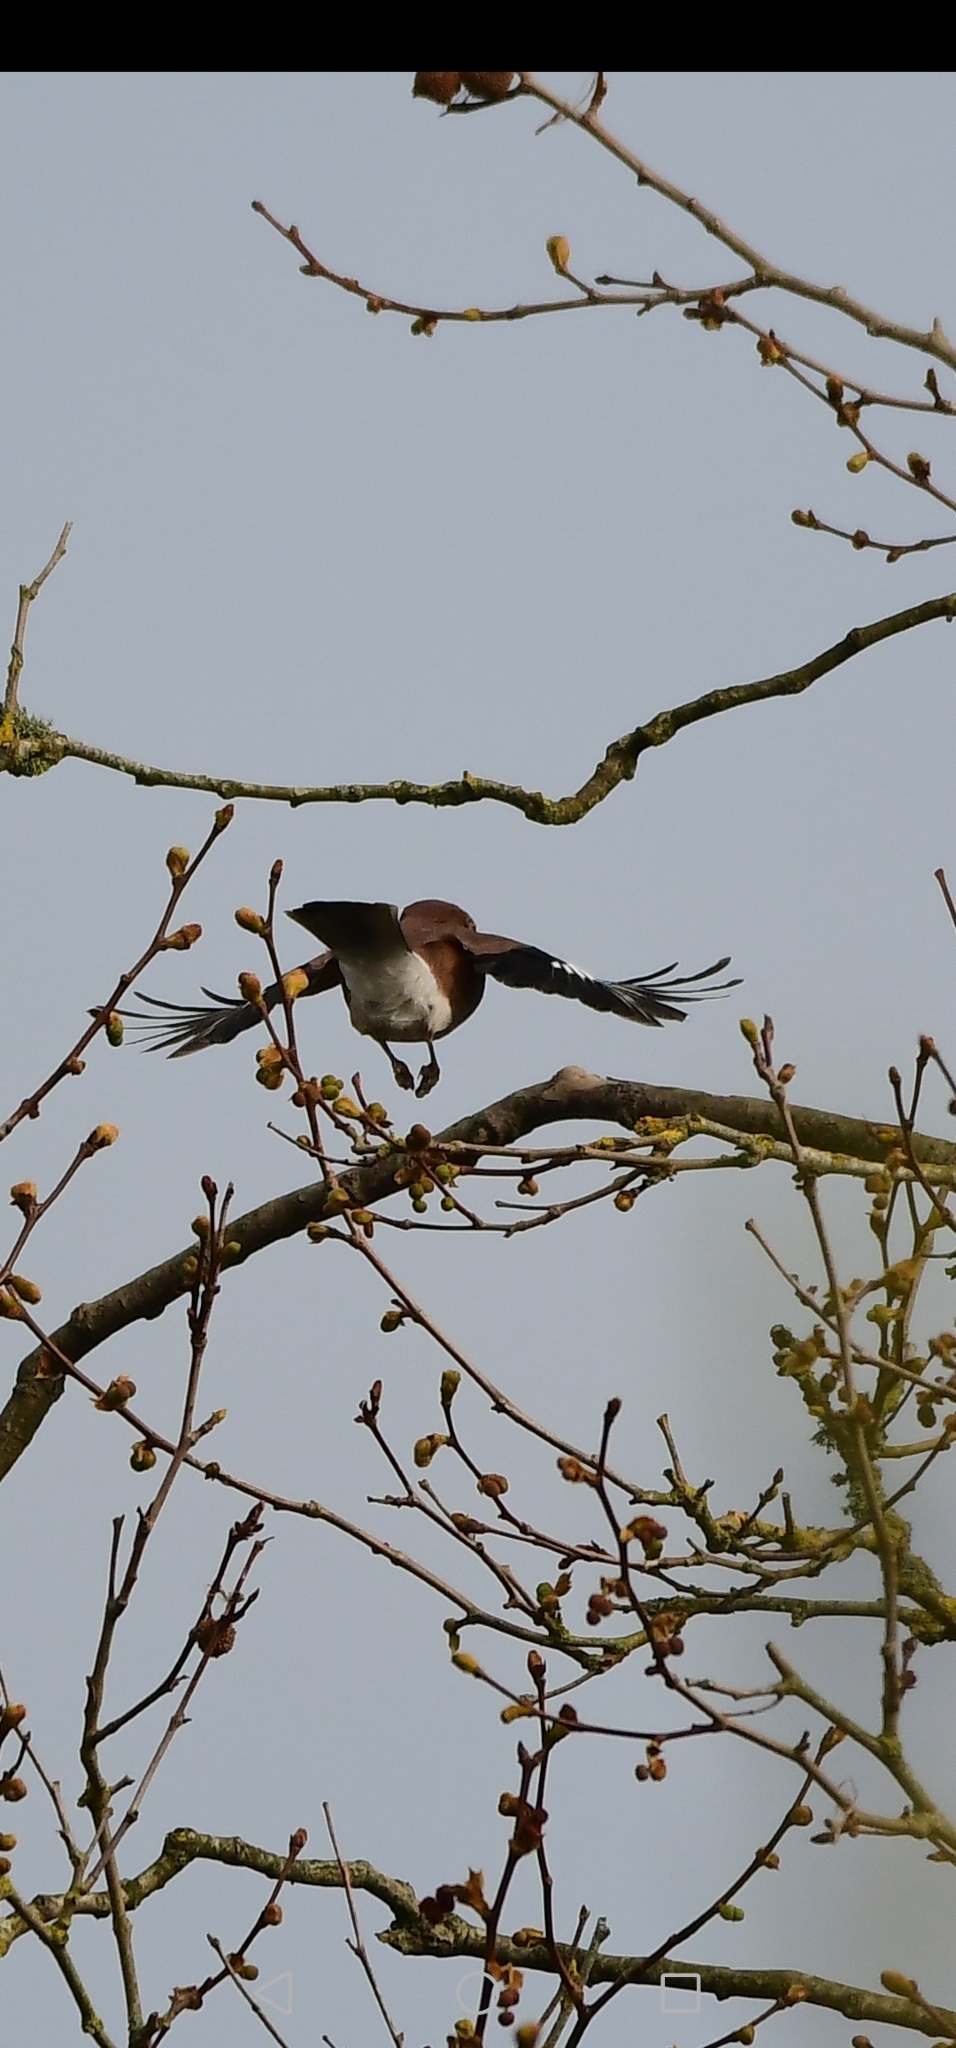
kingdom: Animalia
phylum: Chordata
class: Aves
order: Passeriformes
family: Corvidae
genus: Garrulus
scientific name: Garrulus glandarius
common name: Eurasian jay
